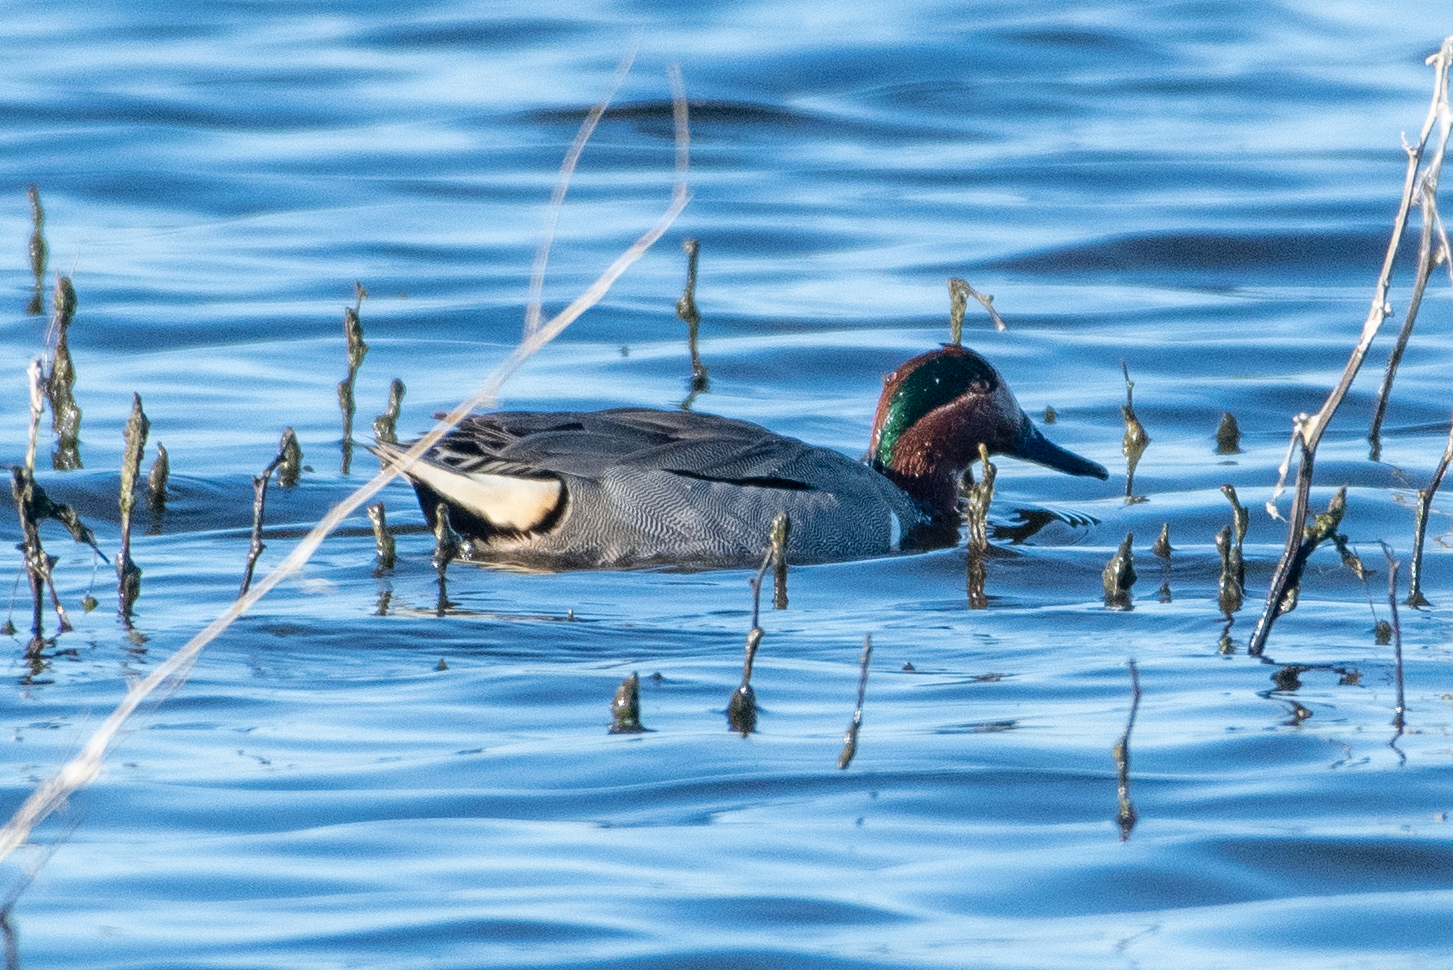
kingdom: Animalia
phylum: Chordata
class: Aves
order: Anseriformes
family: Anatidae
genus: Anas
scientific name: Anas crecca
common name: Eurasian teal
